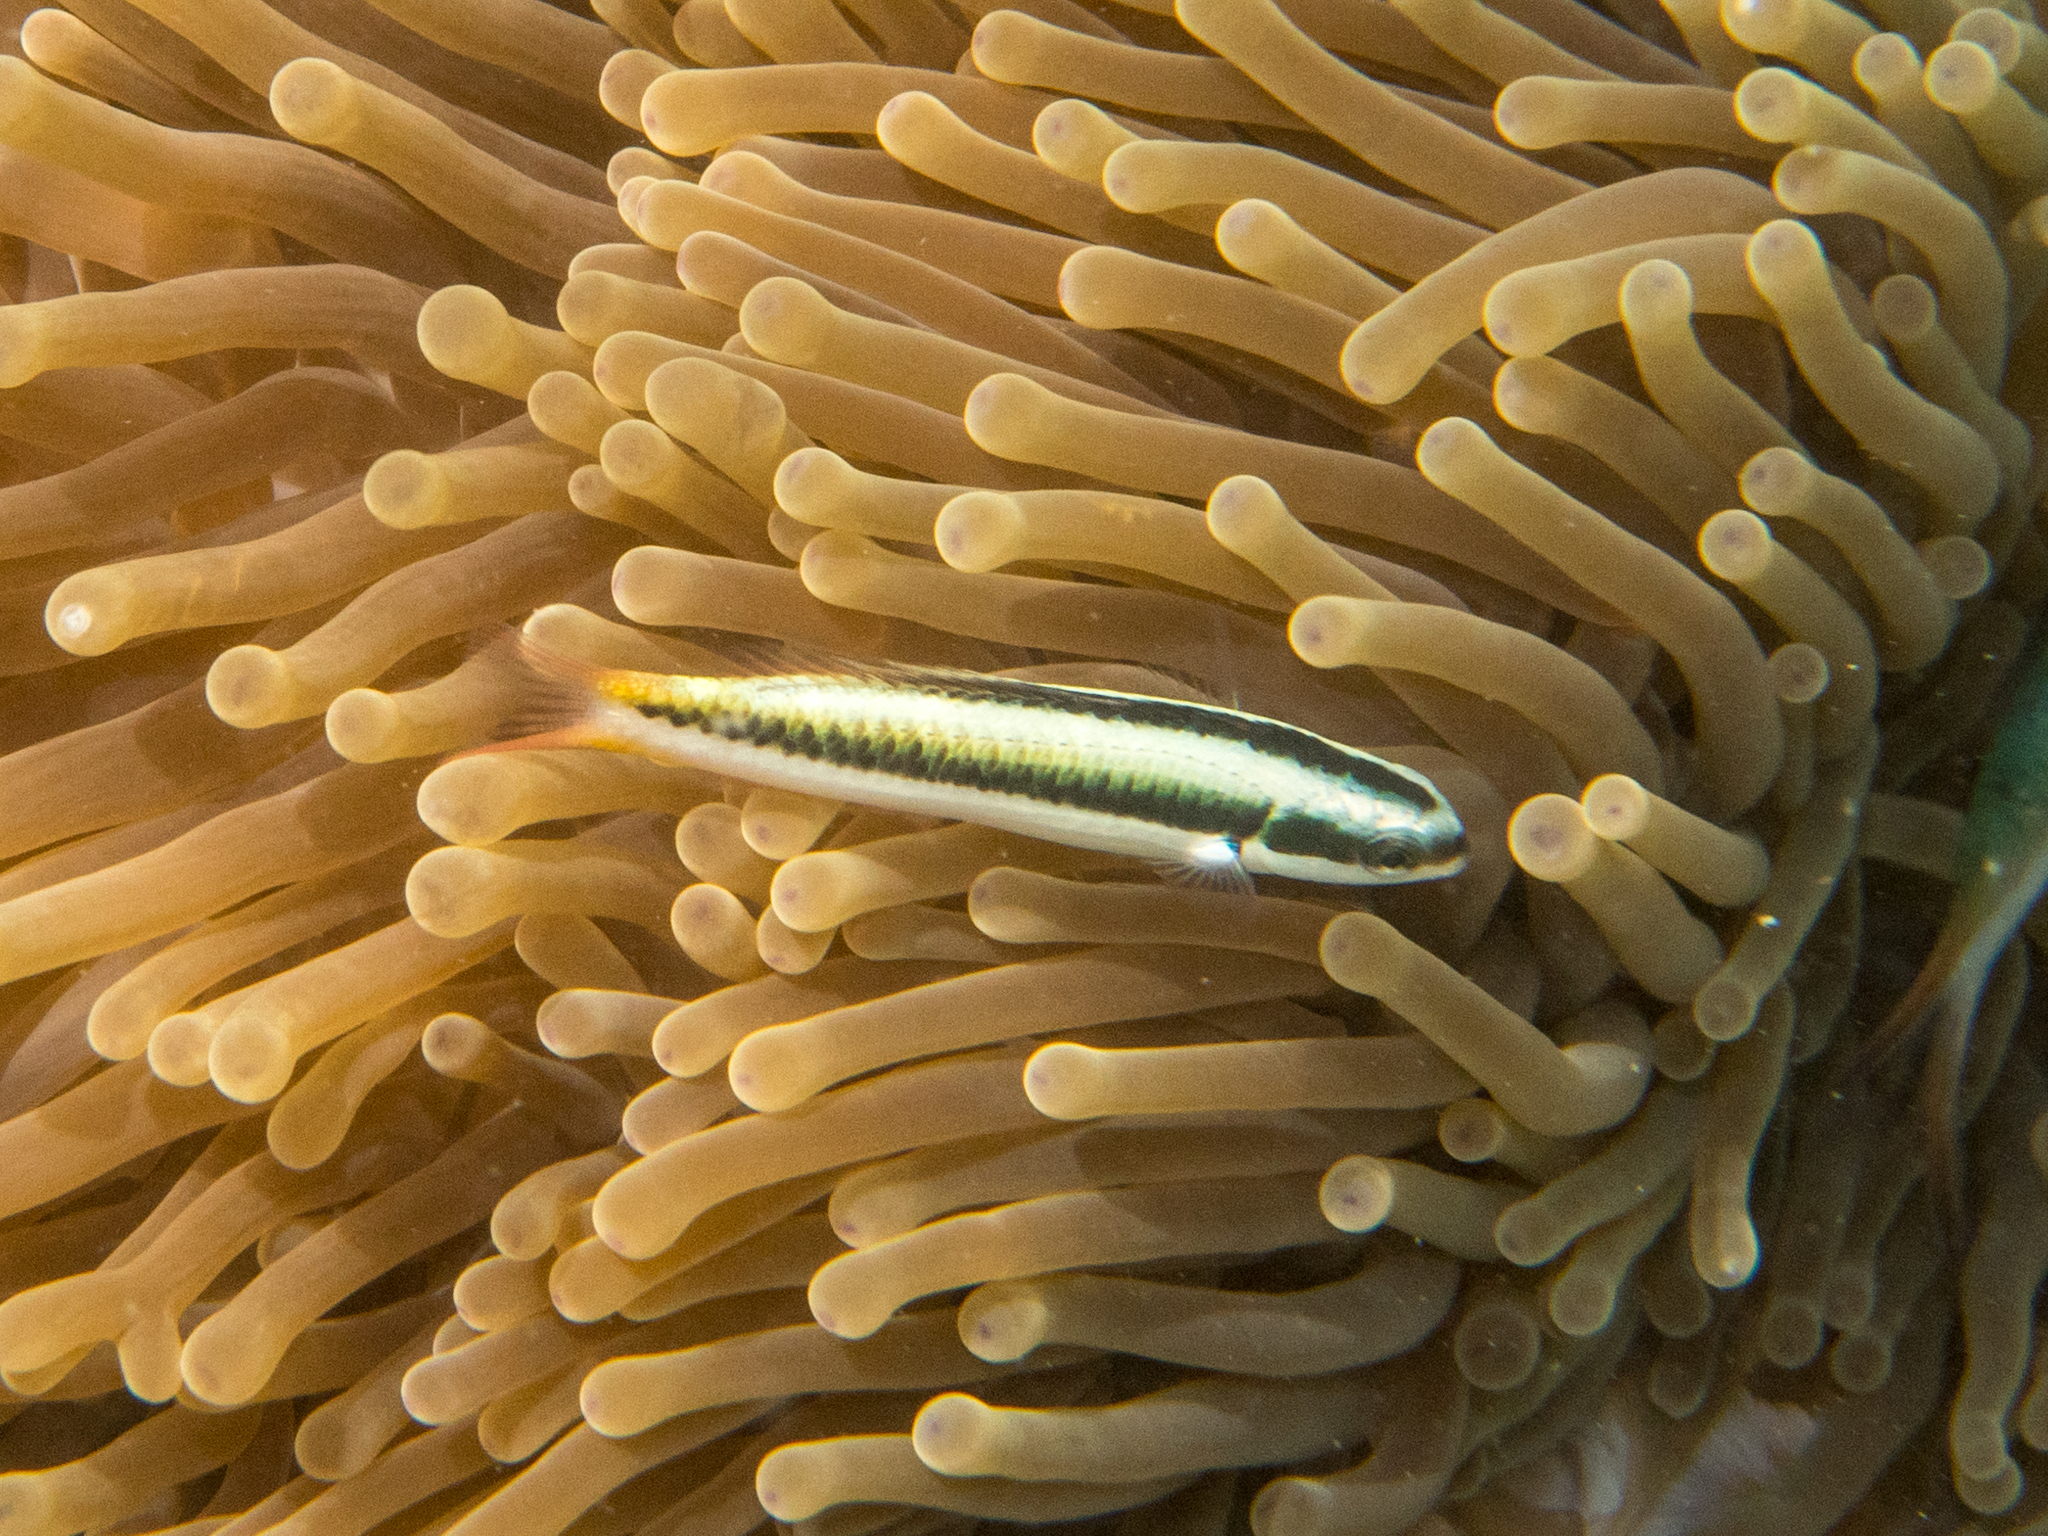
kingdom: Animalia
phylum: Chordata
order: Perciformes
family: Labridae
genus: Thalassoma
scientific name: Thalassoma amblycephalum
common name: Bluehead wrasse
